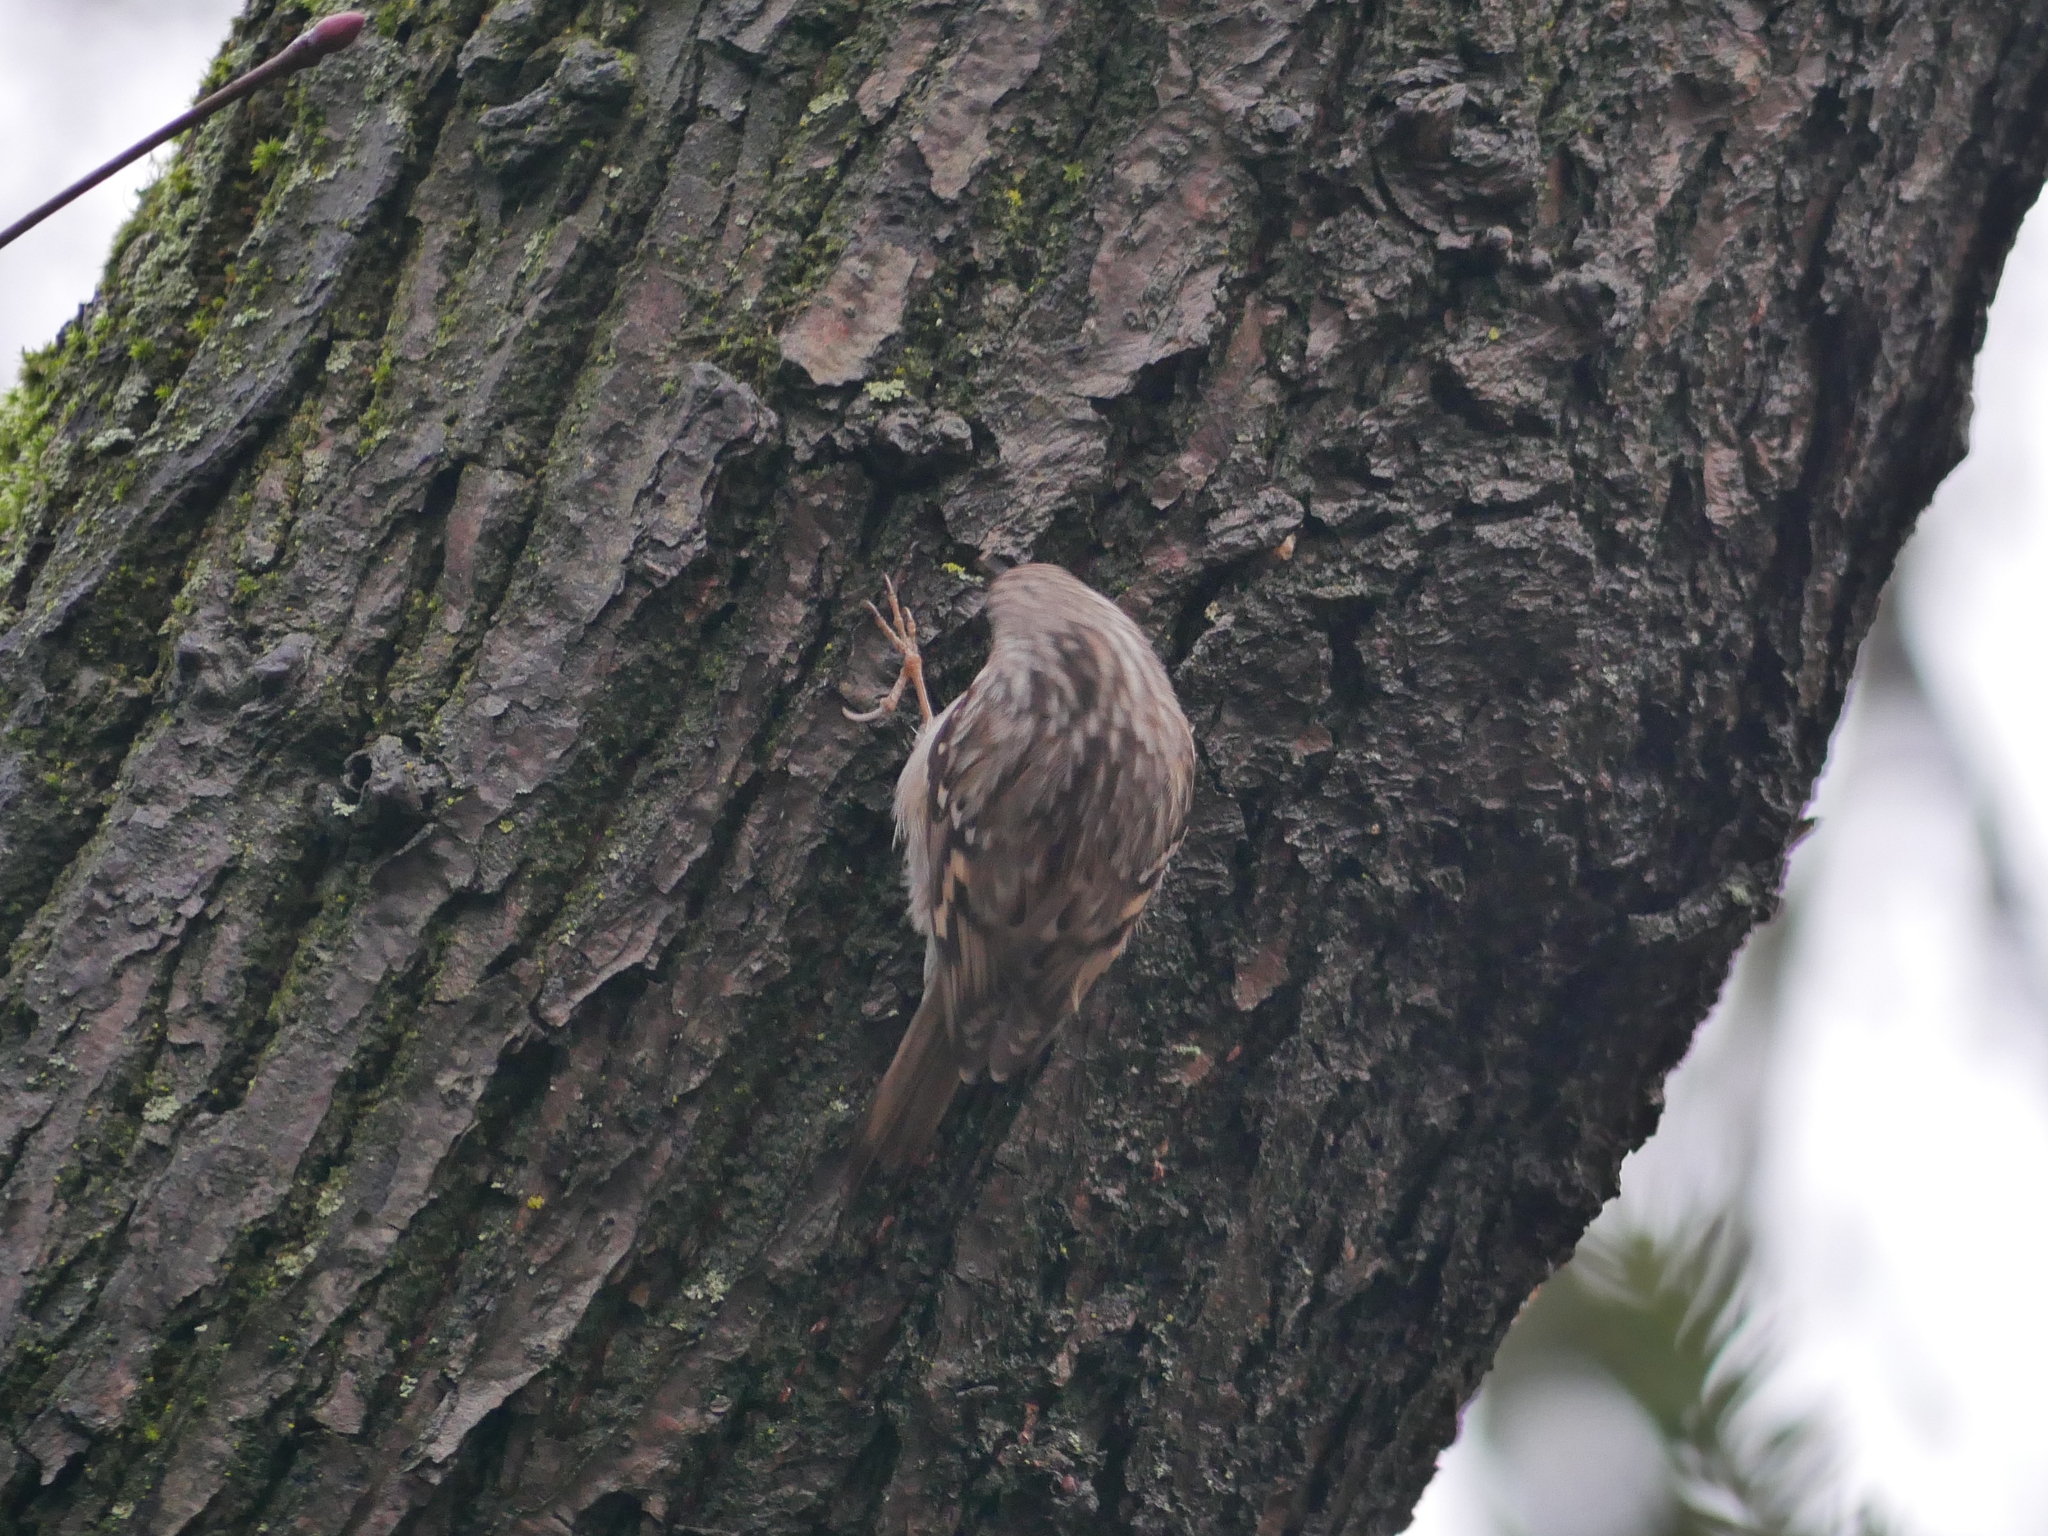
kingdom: Animalia
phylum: Chordata
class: Aves
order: Passeriformes
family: Certhiidae
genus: Certhia
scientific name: Certhia brachydactyla
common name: Short-toed treecreeper
